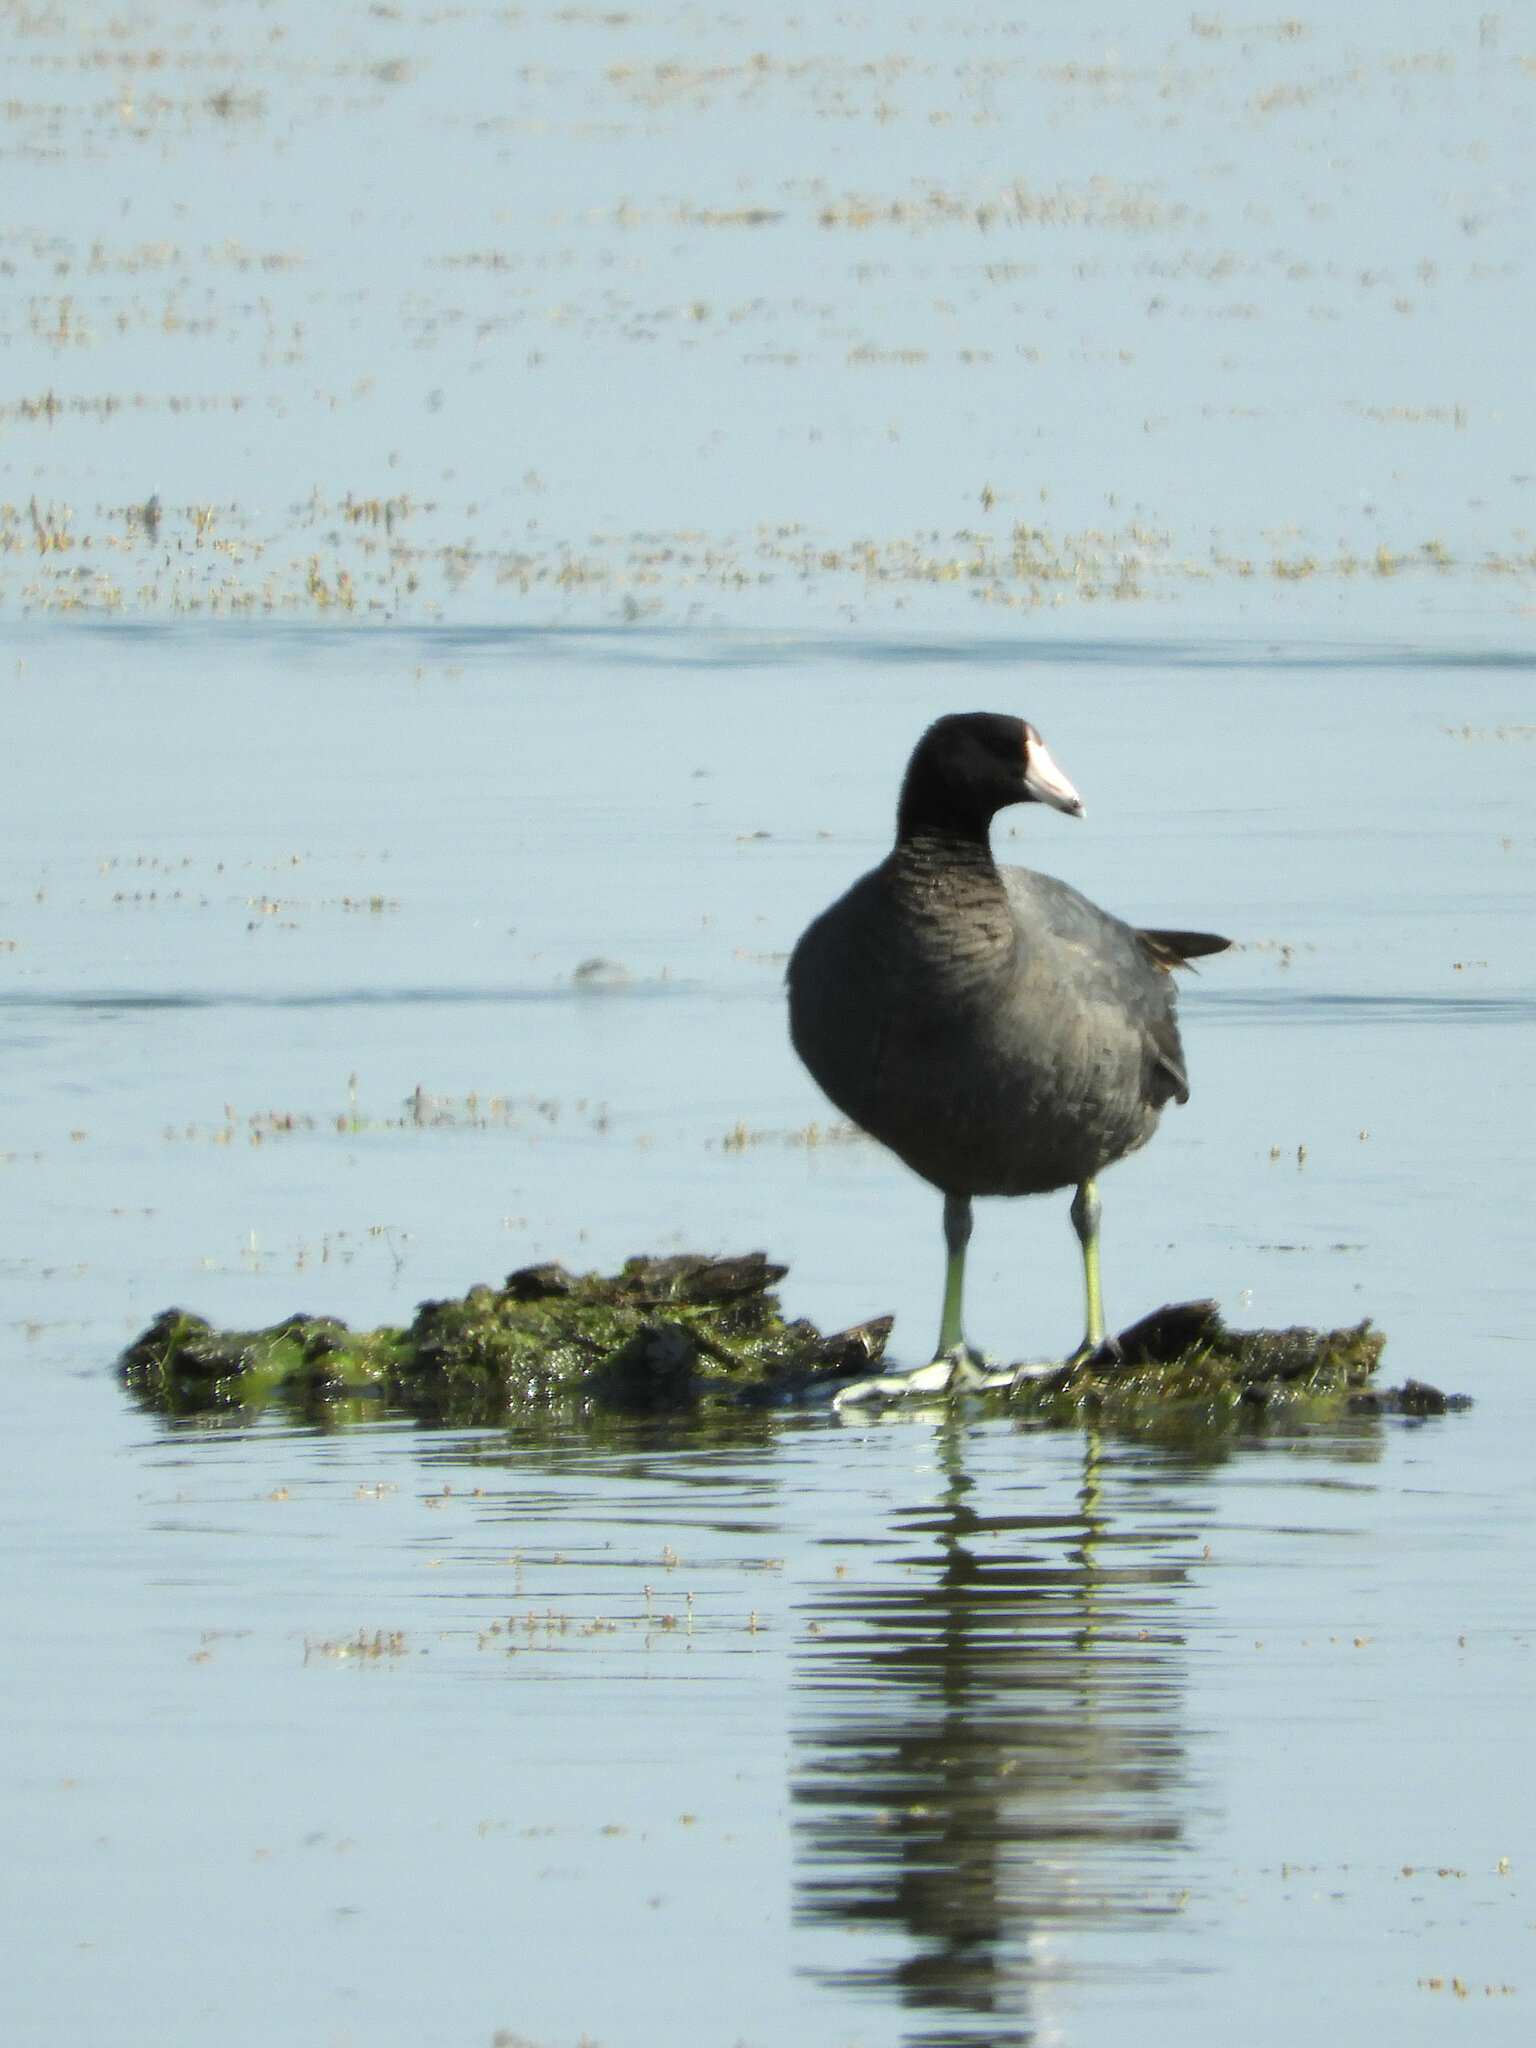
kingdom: Animalia
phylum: Chordata
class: Aves
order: Gruiformes
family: Rallidae
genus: Fulica
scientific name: Fulica americana
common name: American coot
